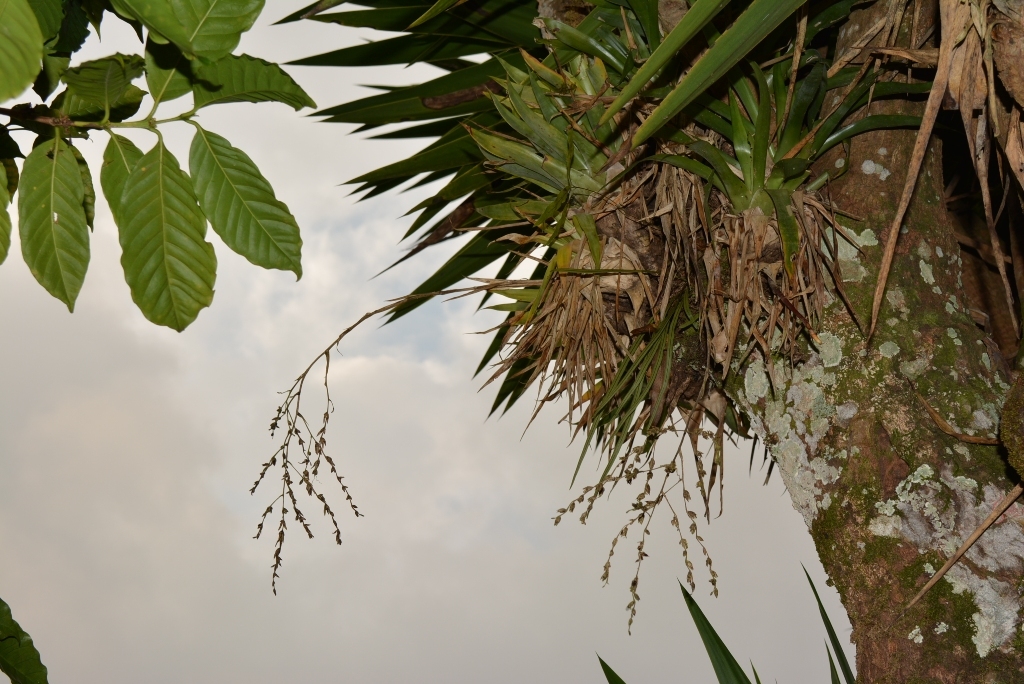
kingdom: Plantae
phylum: Tracheophyta
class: Liliopsida
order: Poales
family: Bromeliaceae
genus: Catopsis
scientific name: Catopsis paniculata
